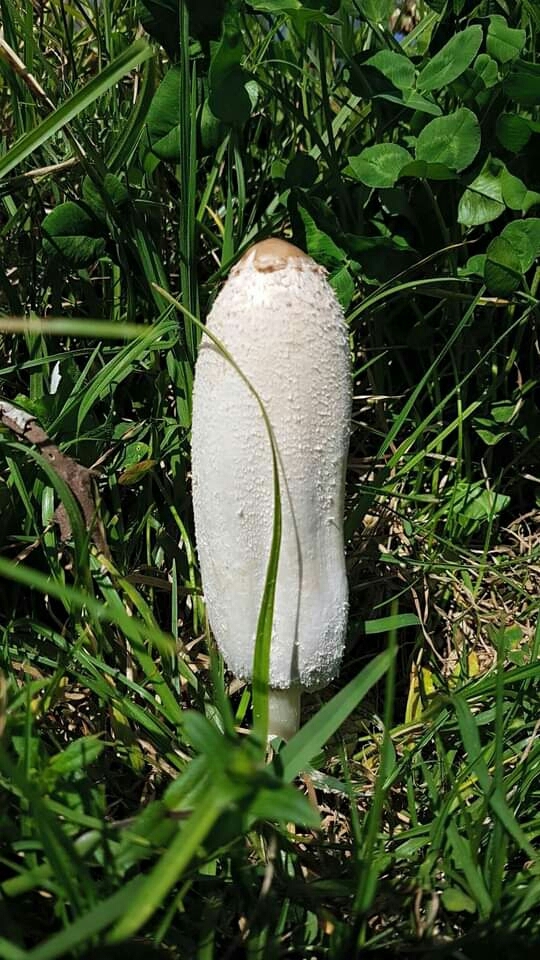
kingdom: Fungi
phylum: Basidiomycota
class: Agaricomycetes
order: Agaricales
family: Agaricaceae
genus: Coprinus
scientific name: Coprinus comatus
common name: Lawyer's wig
